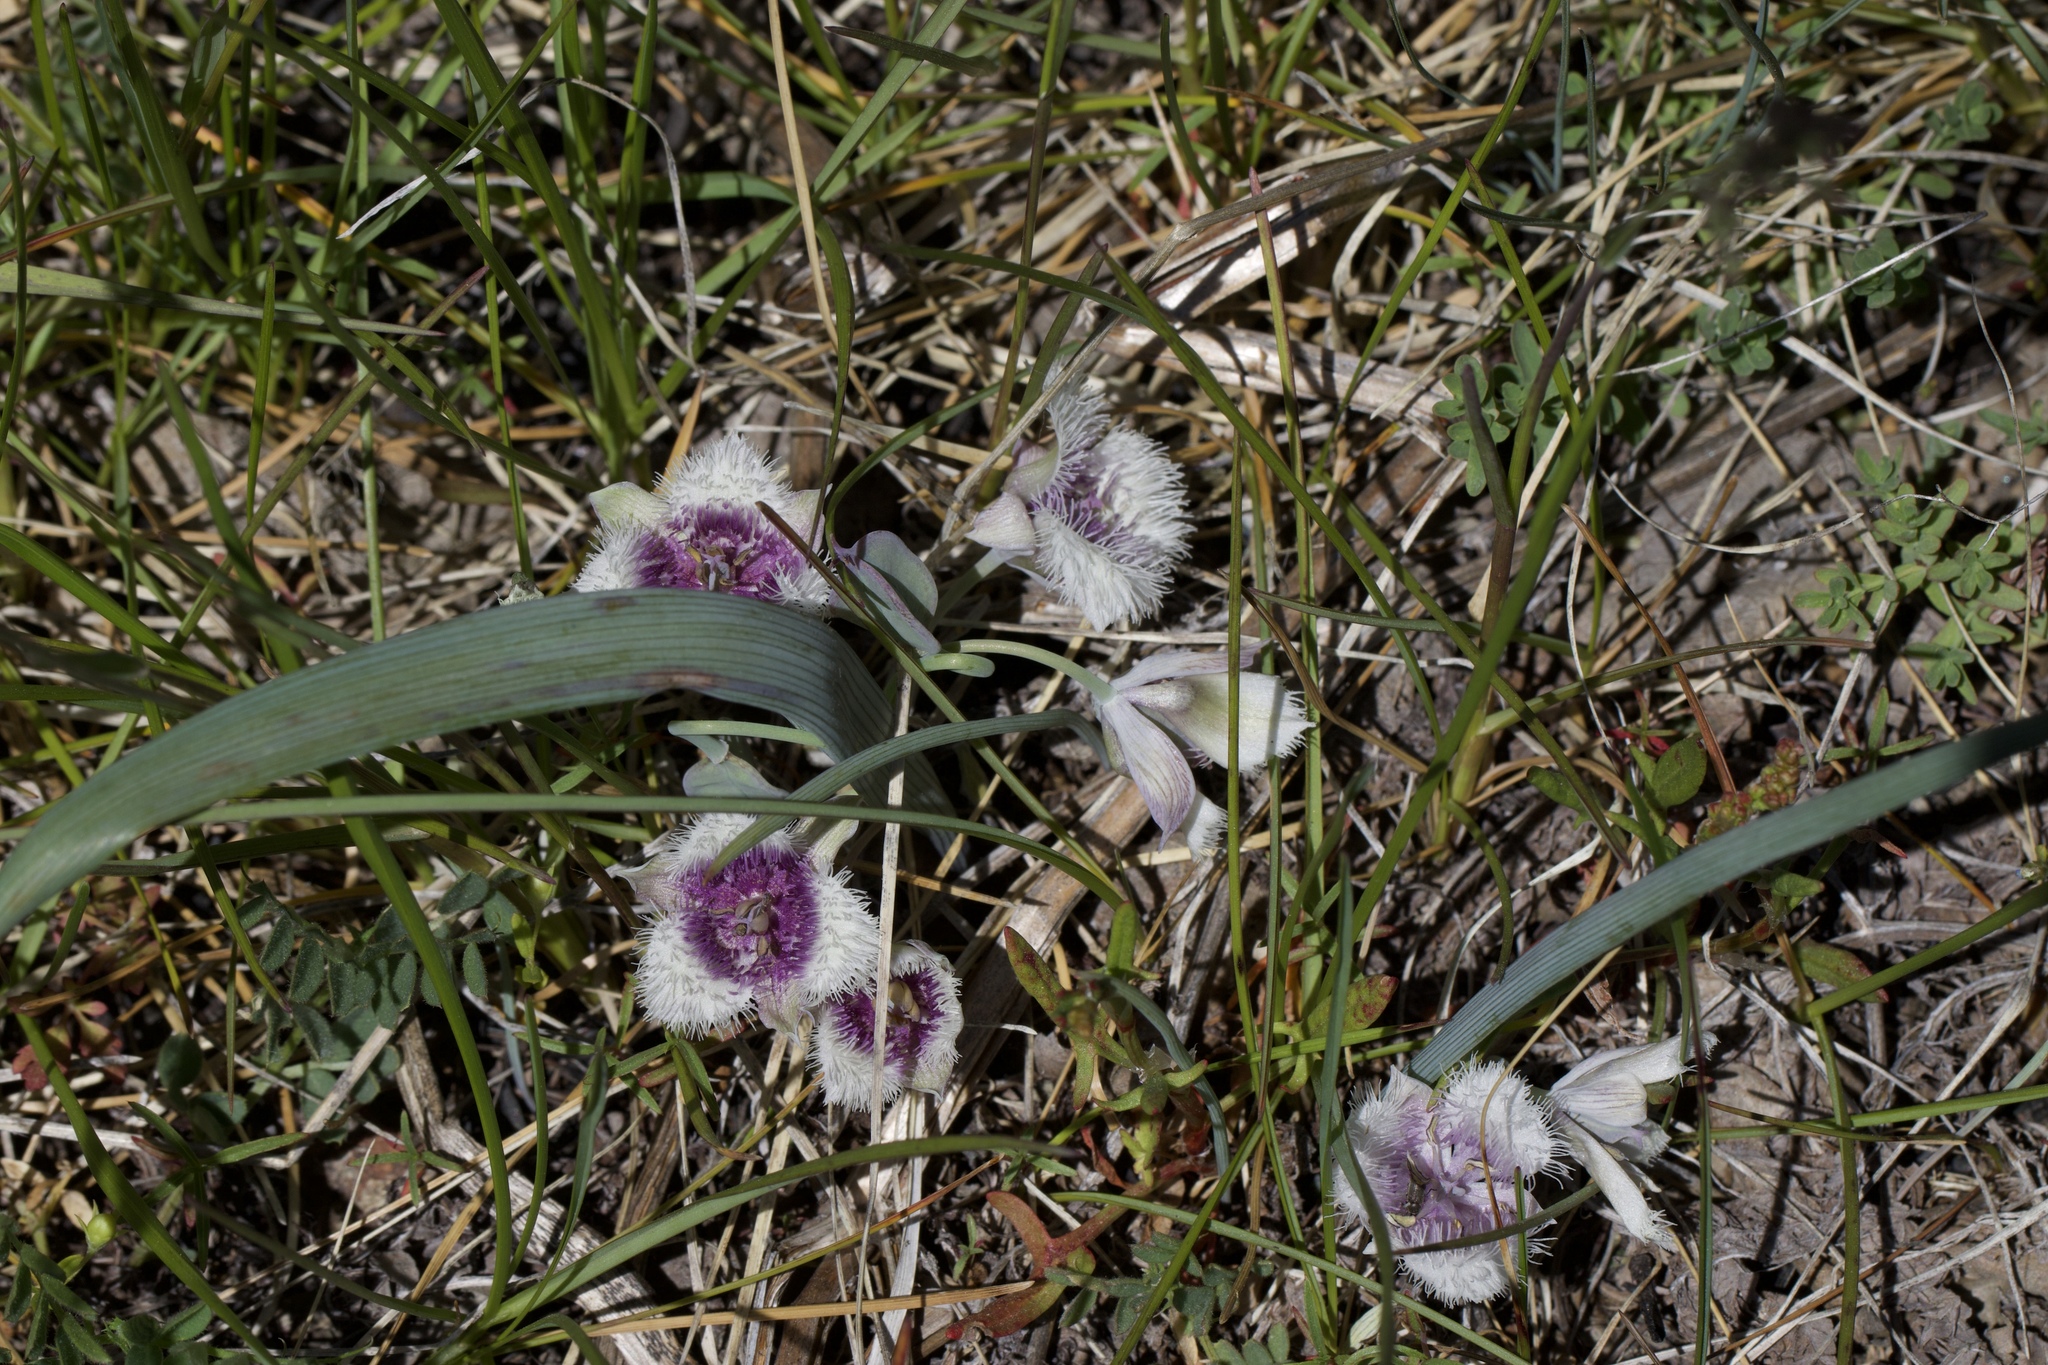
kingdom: Plantae
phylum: Tracheophyta
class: Liliopsida
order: Liliales
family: Liliaceae
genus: Calochortus
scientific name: Calochortus coeruleus
